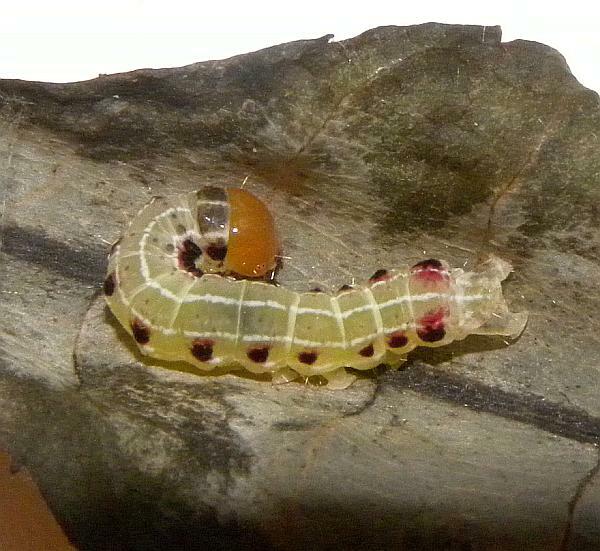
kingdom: Animalia
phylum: Arthropoda
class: Insecta
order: Lepidoptera
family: Noctuidae
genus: Achatia
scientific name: Achatia confusa
